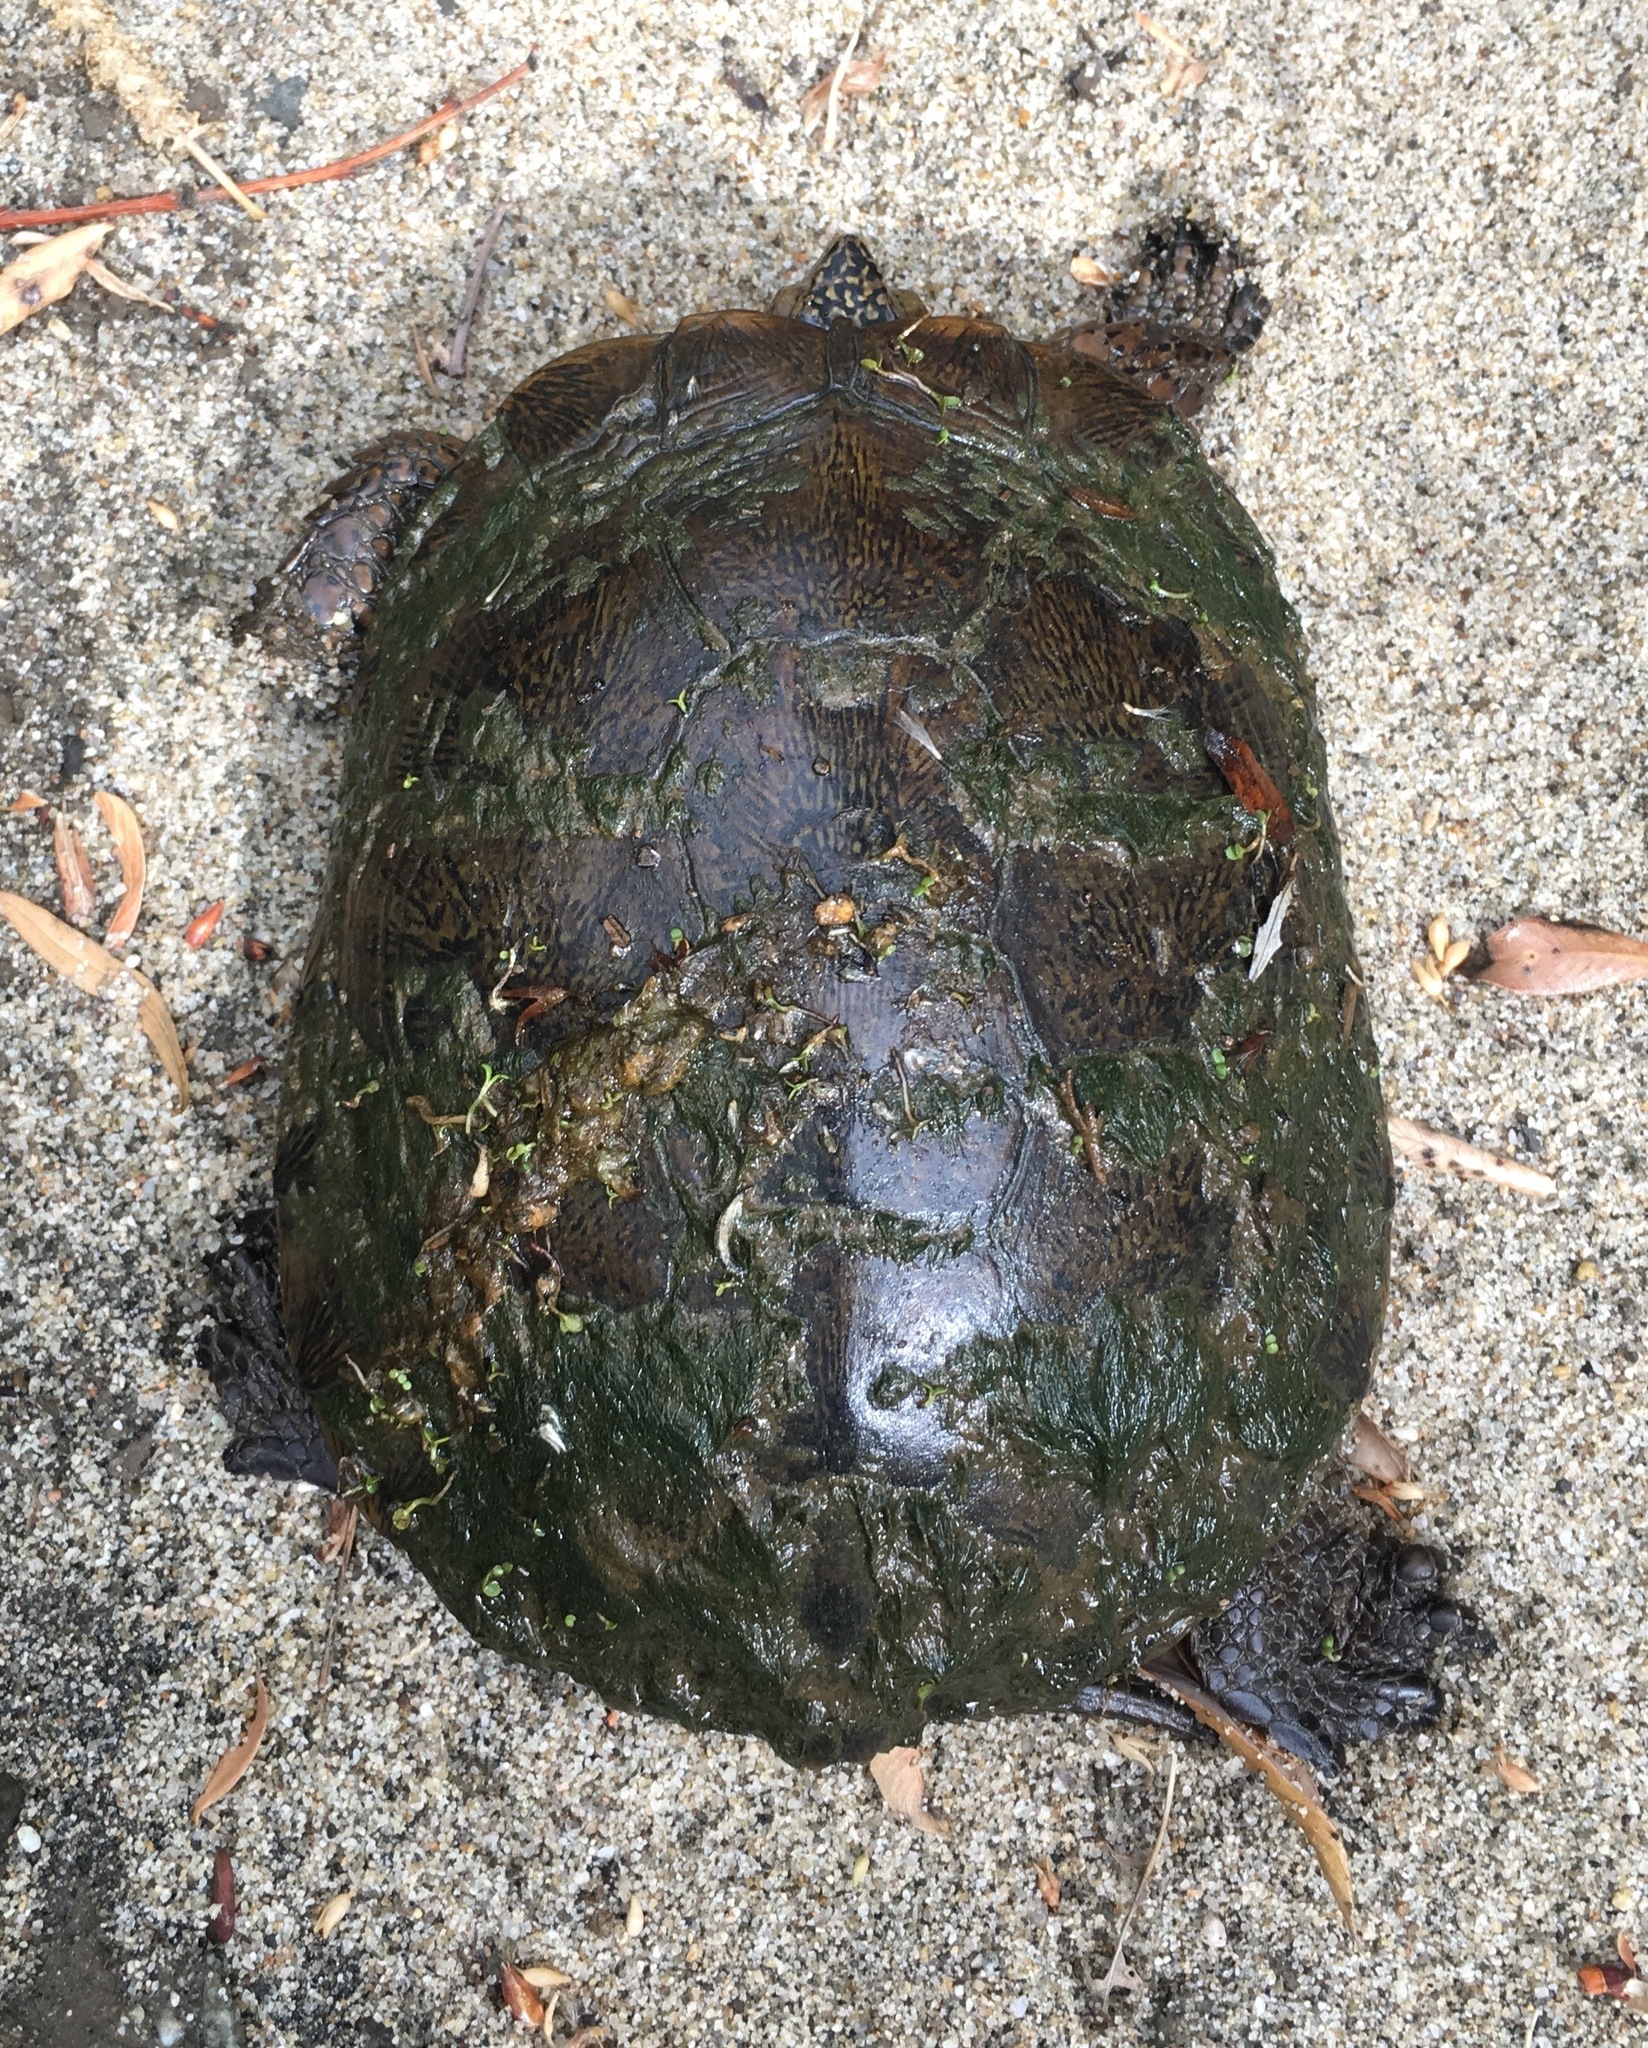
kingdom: Animalia
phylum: Chordata
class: Testudines
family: Emydidae
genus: Actinemys
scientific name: Actinemys marmorata
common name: Western pond turtle
